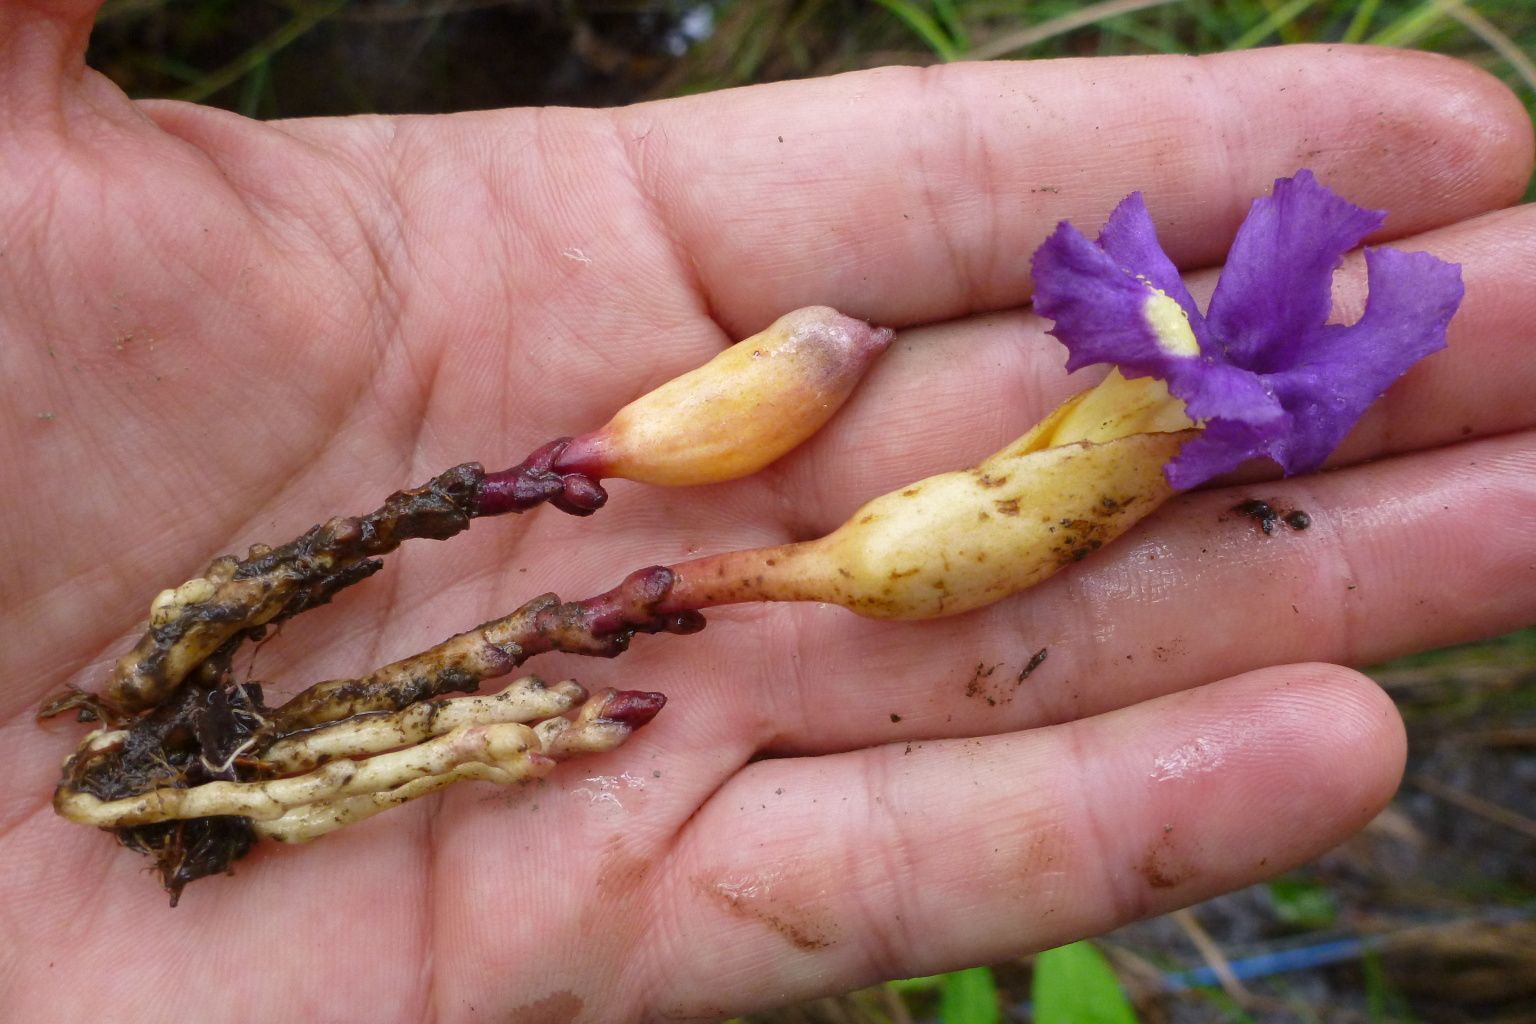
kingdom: Plantae
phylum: Tracheophyta
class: Magnoliopsida
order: Lamiales
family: Orobanchaceae
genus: Aeginetia
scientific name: Aeginetia indica
